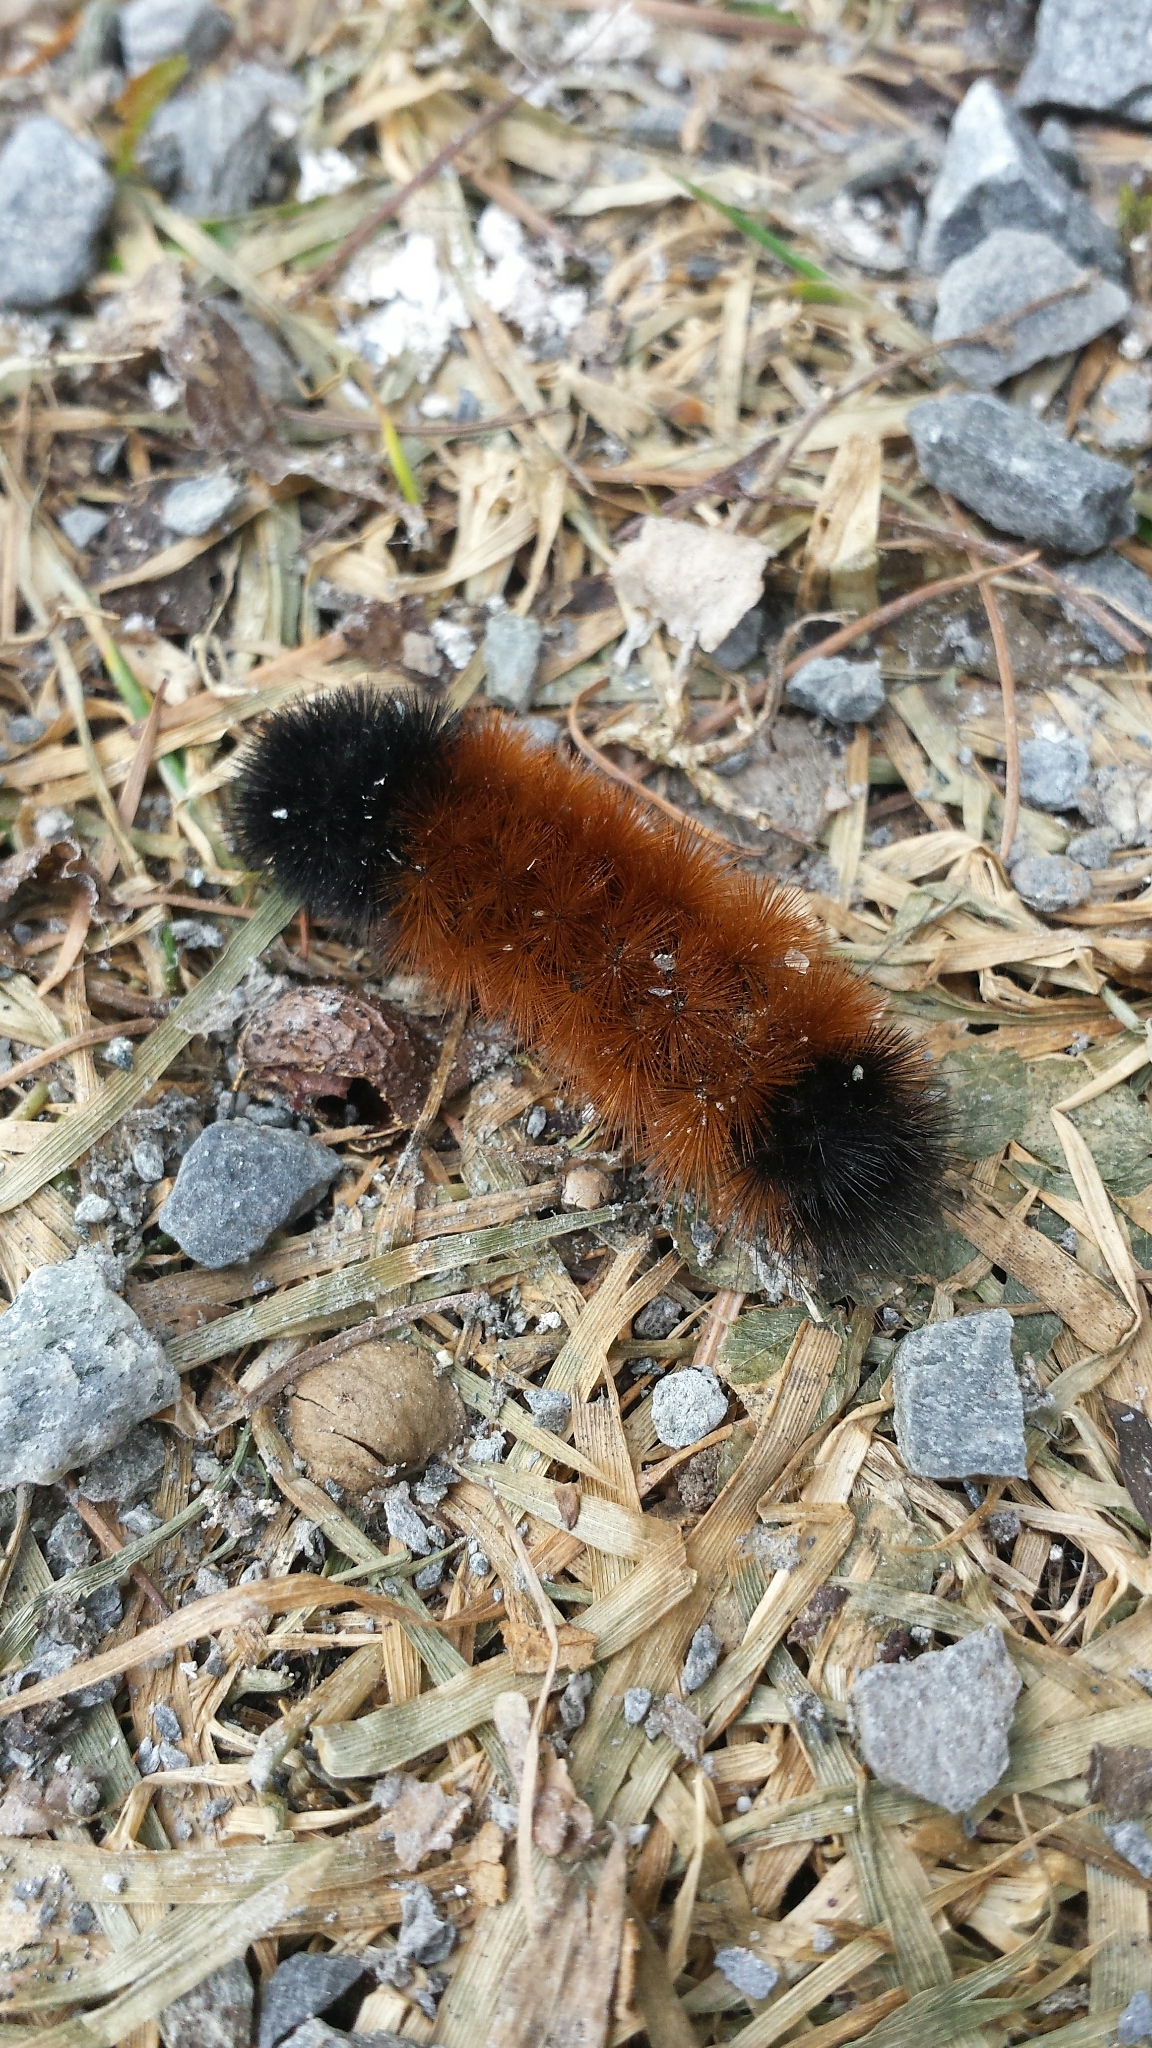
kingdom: Animalia
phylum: Arthropoda
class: Insecta
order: Lepidoptera
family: Erebidae
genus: Pyrrharctia
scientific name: Pyrrharctia isabella
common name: Isabella tiger moth
